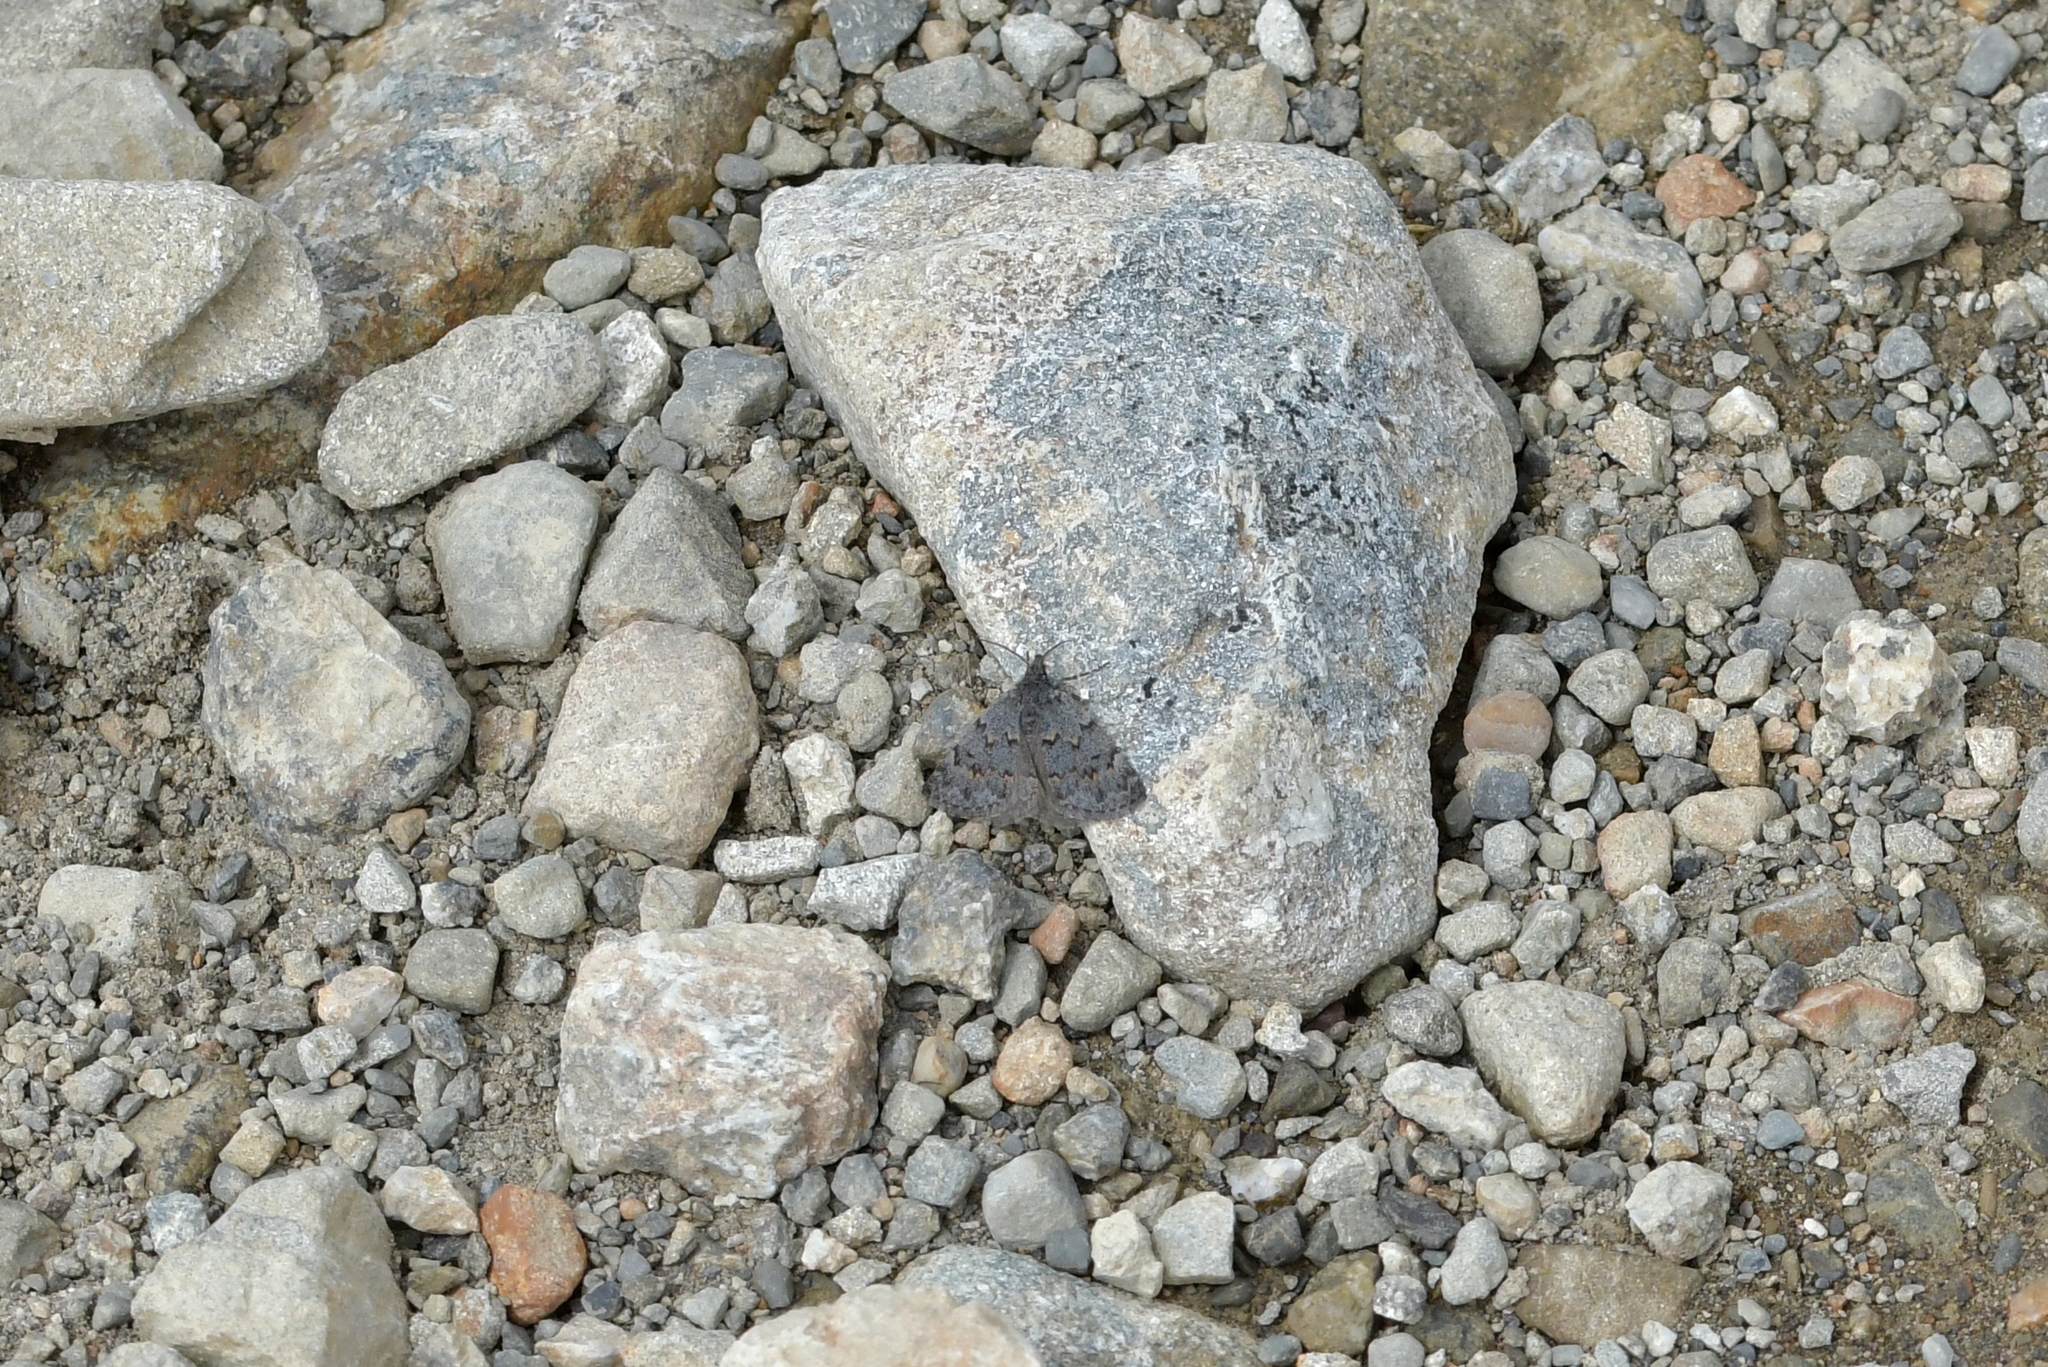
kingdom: Animalia
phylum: Arthropoda
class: Insecta
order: Lepidoptera
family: Geometridae
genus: Dichromodes
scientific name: Dichromodes niger
